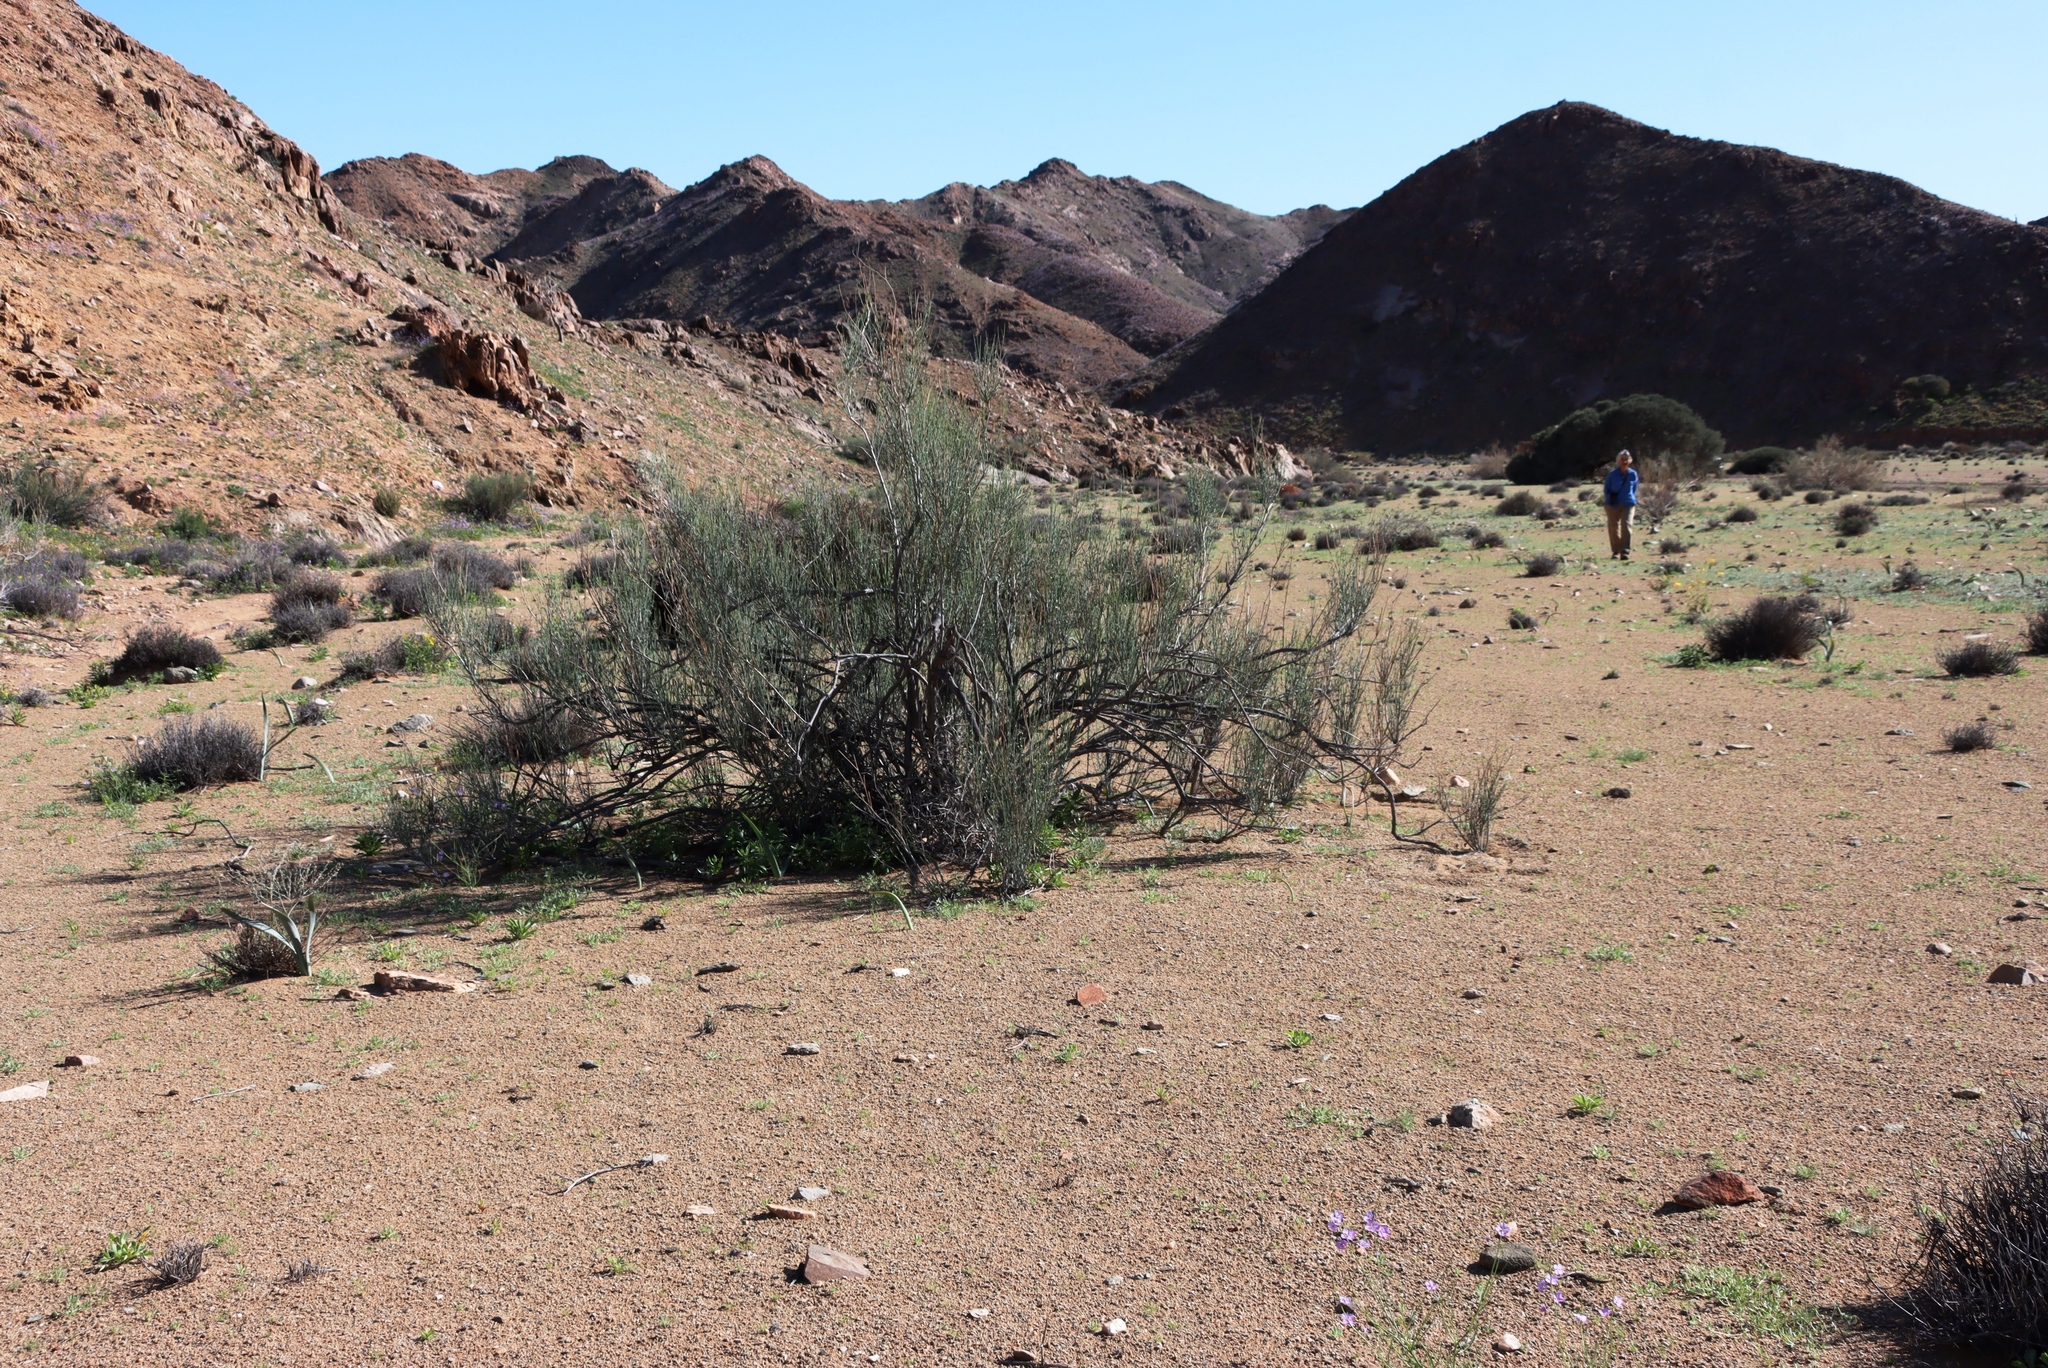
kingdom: Plantae
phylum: Tracheophyta
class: Magnoliopsida
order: Fabales
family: Fabaceae
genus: Adenolobus
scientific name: Adenolobus garipensis
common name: Butterfly-leaf
